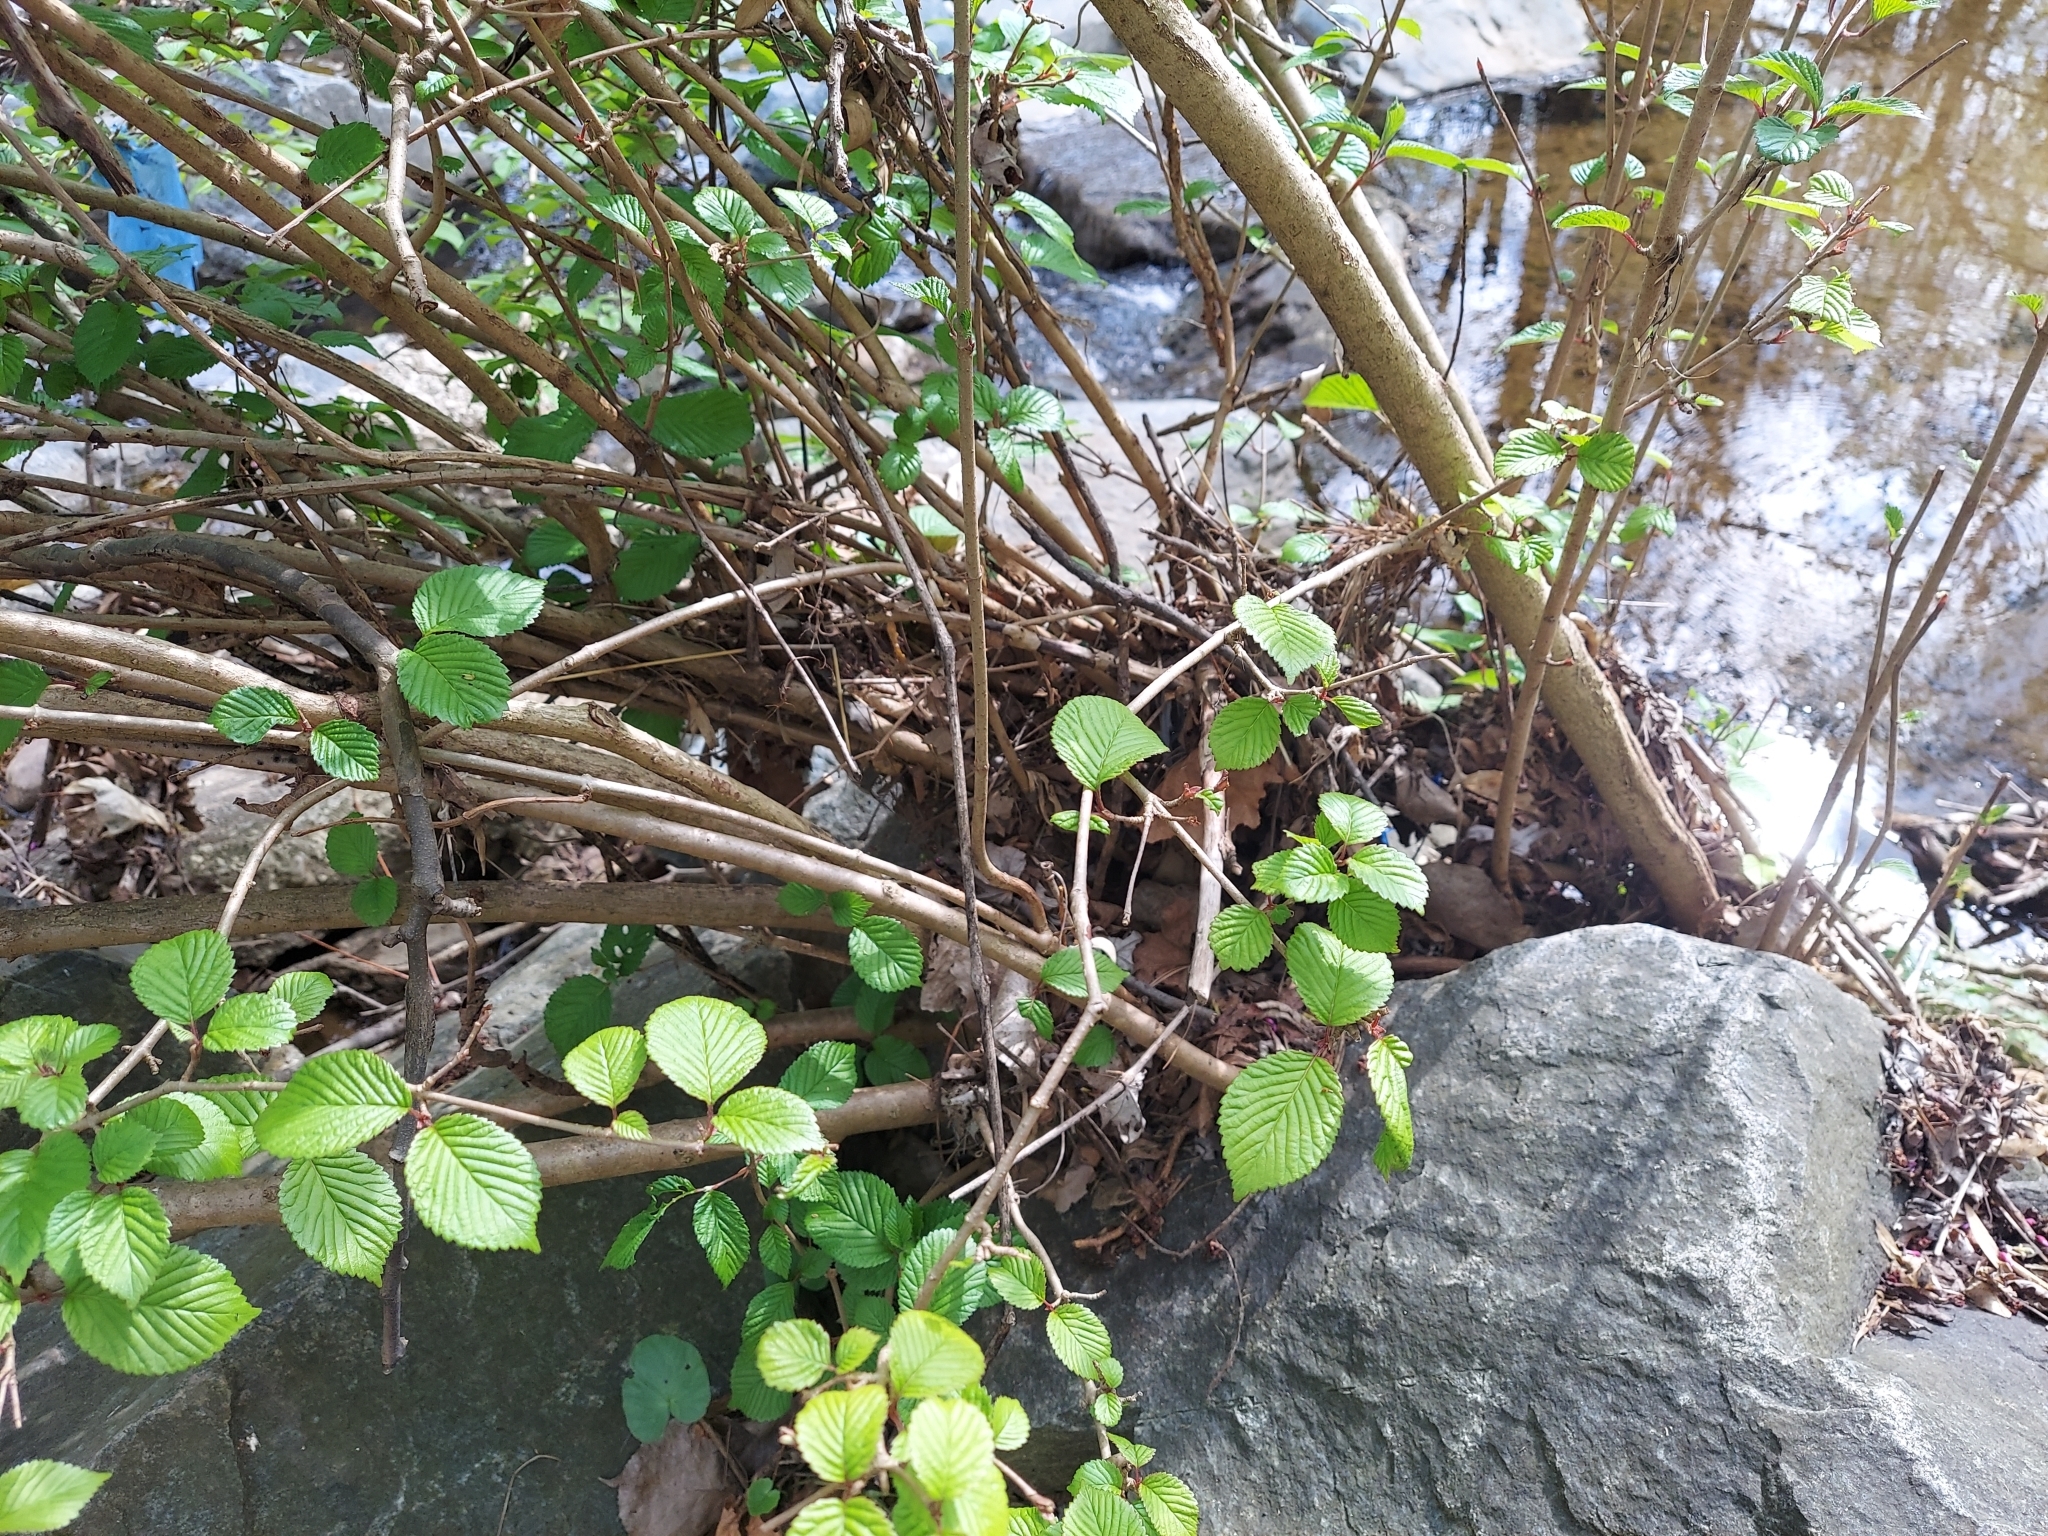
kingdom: Plantae
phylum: Tracheophyta
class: Magnoliopsida
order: Dipsacales
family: Viburnaceae
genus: Viburnum
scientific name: Viburnum plicatum
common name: Japanese snowball
